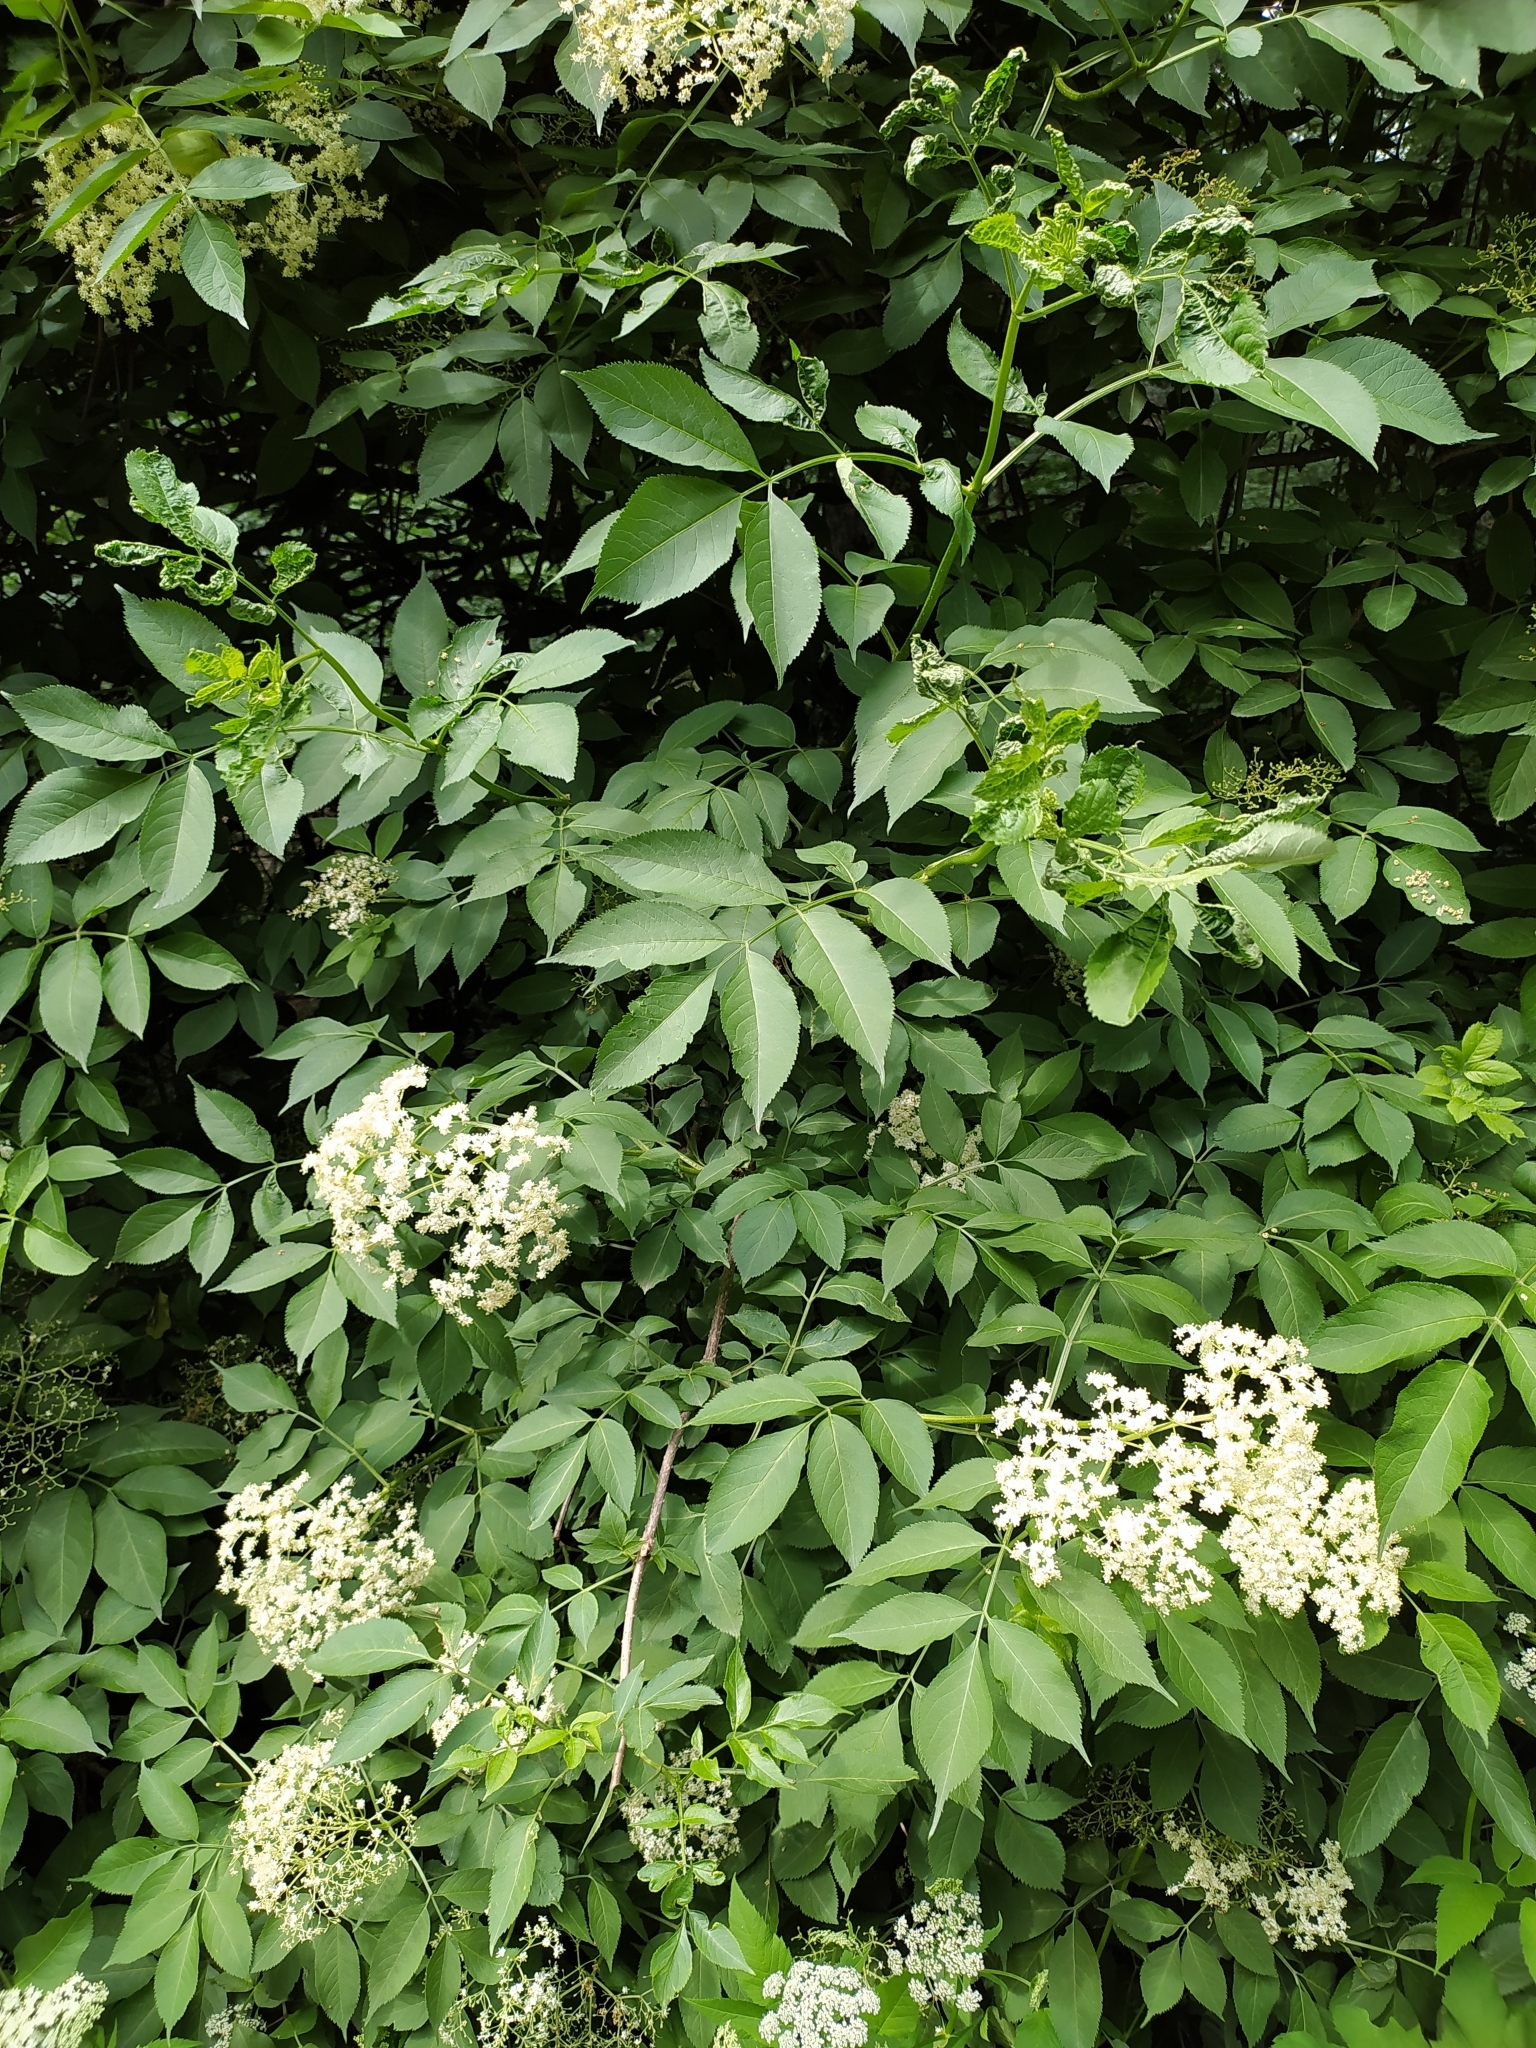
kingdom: Plantae
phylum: Tracheophyta
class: Magnoliopsida
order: Dipsacales
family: Viburnaceae
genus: Sambucus
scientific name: Sambucus nigra
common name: Elder
